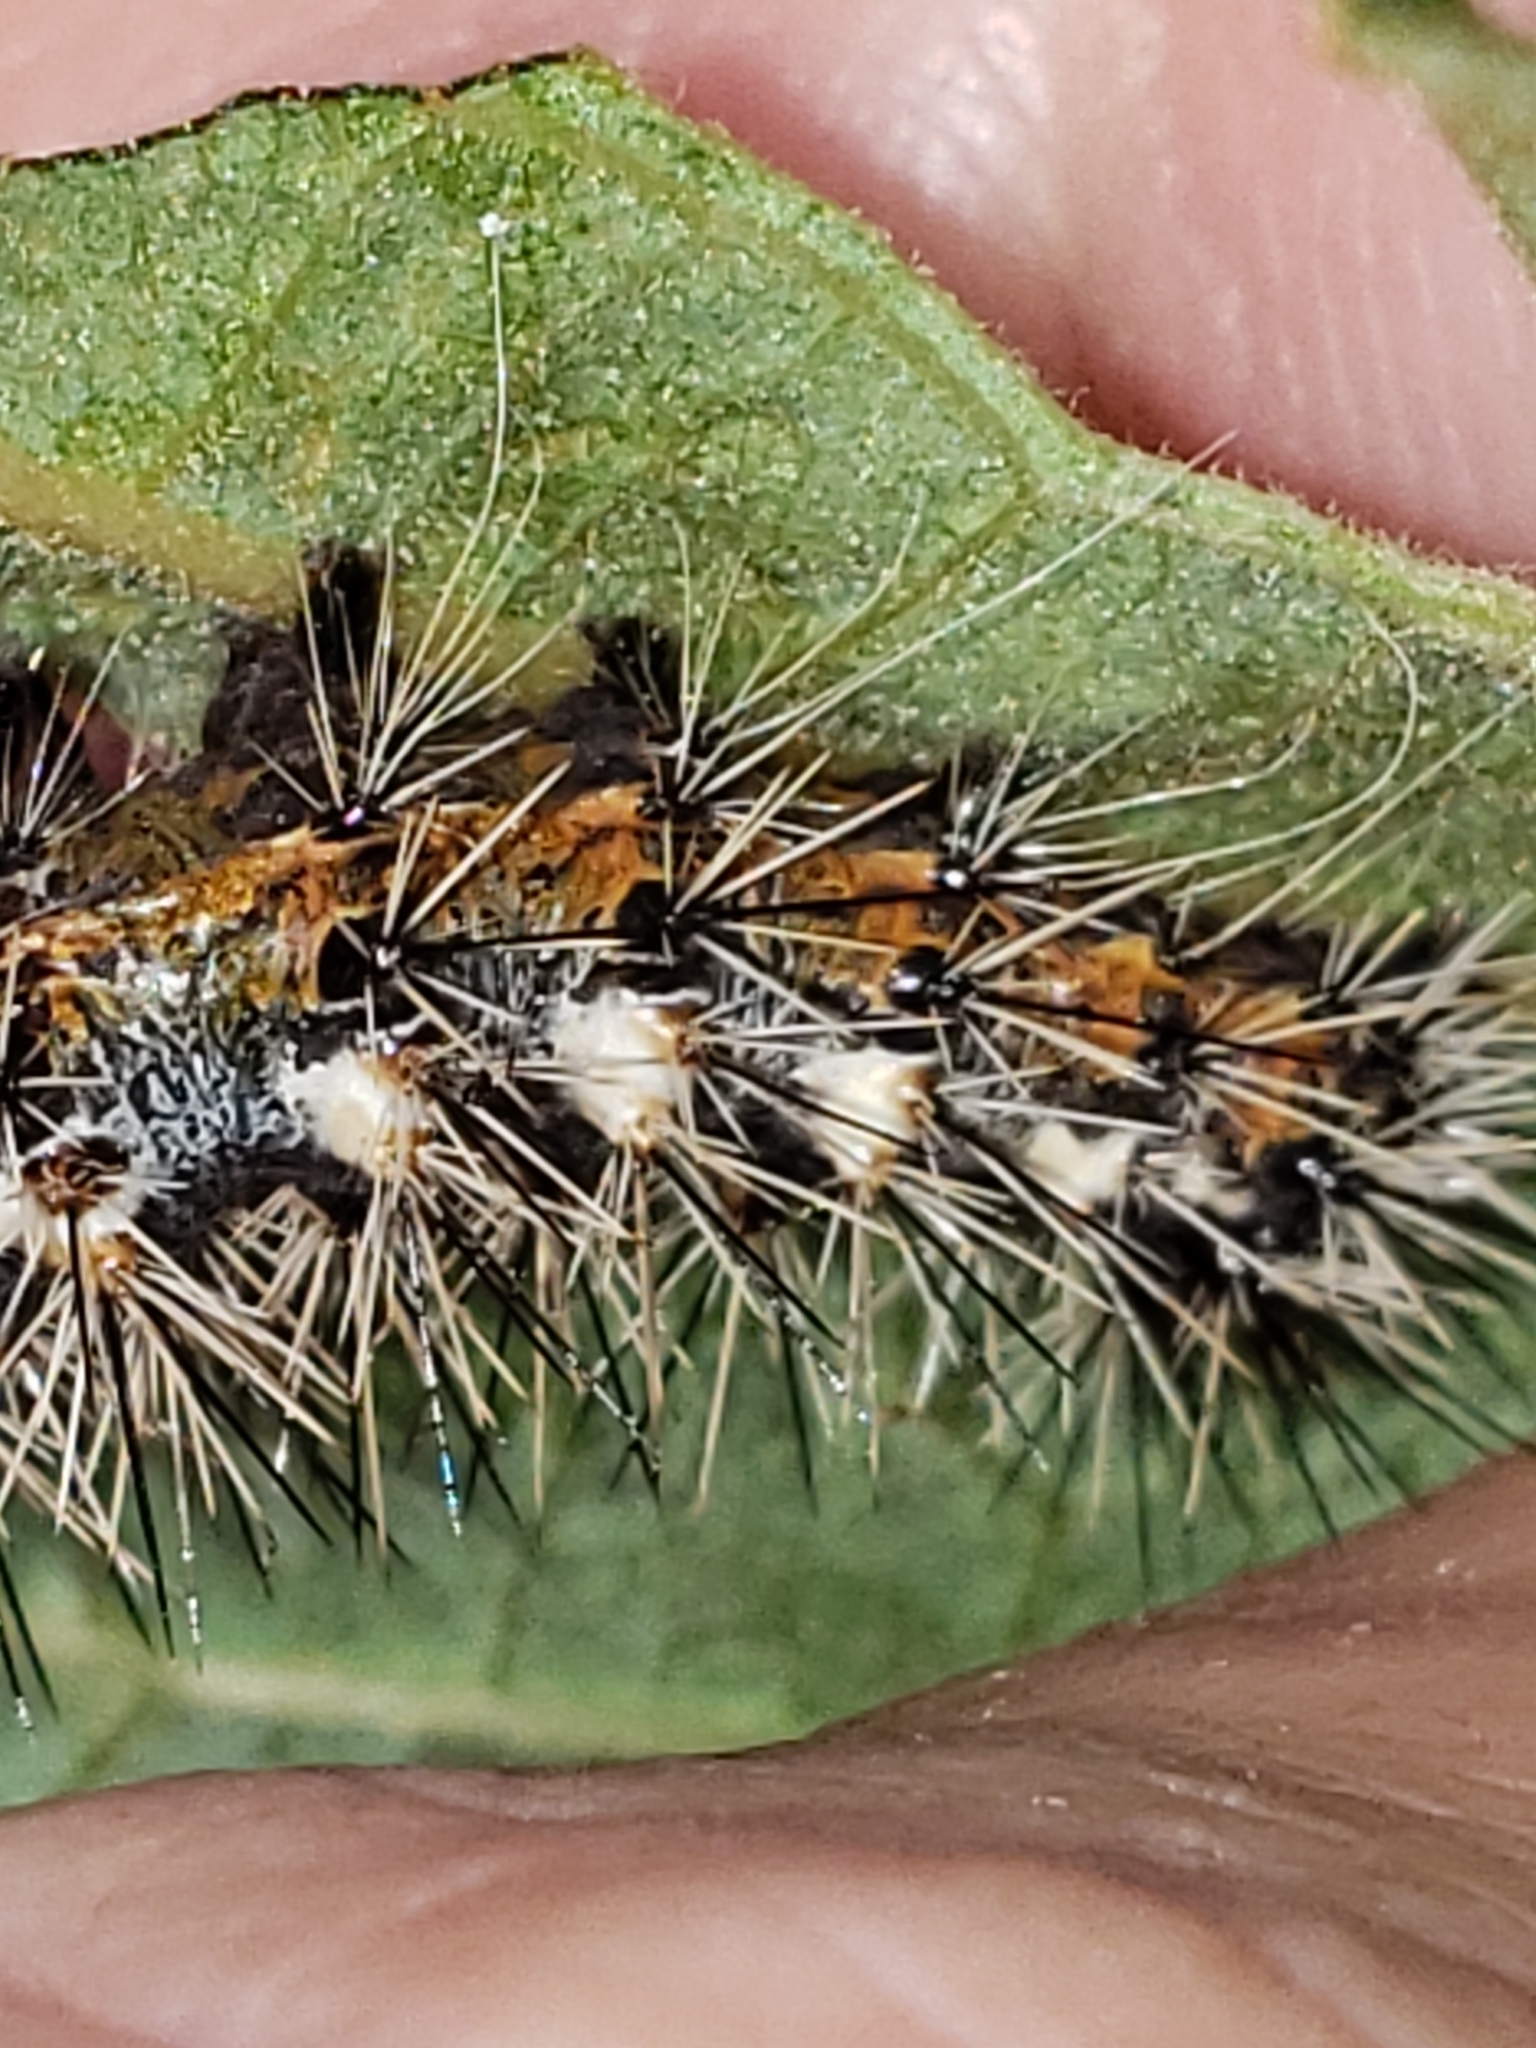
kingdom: Animalia
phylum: Arthropoda
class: Insecta
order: Lepidoptera
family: Noctuidae
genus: Acronicta
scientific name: Acronicta longa
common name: Long-winged dagger
